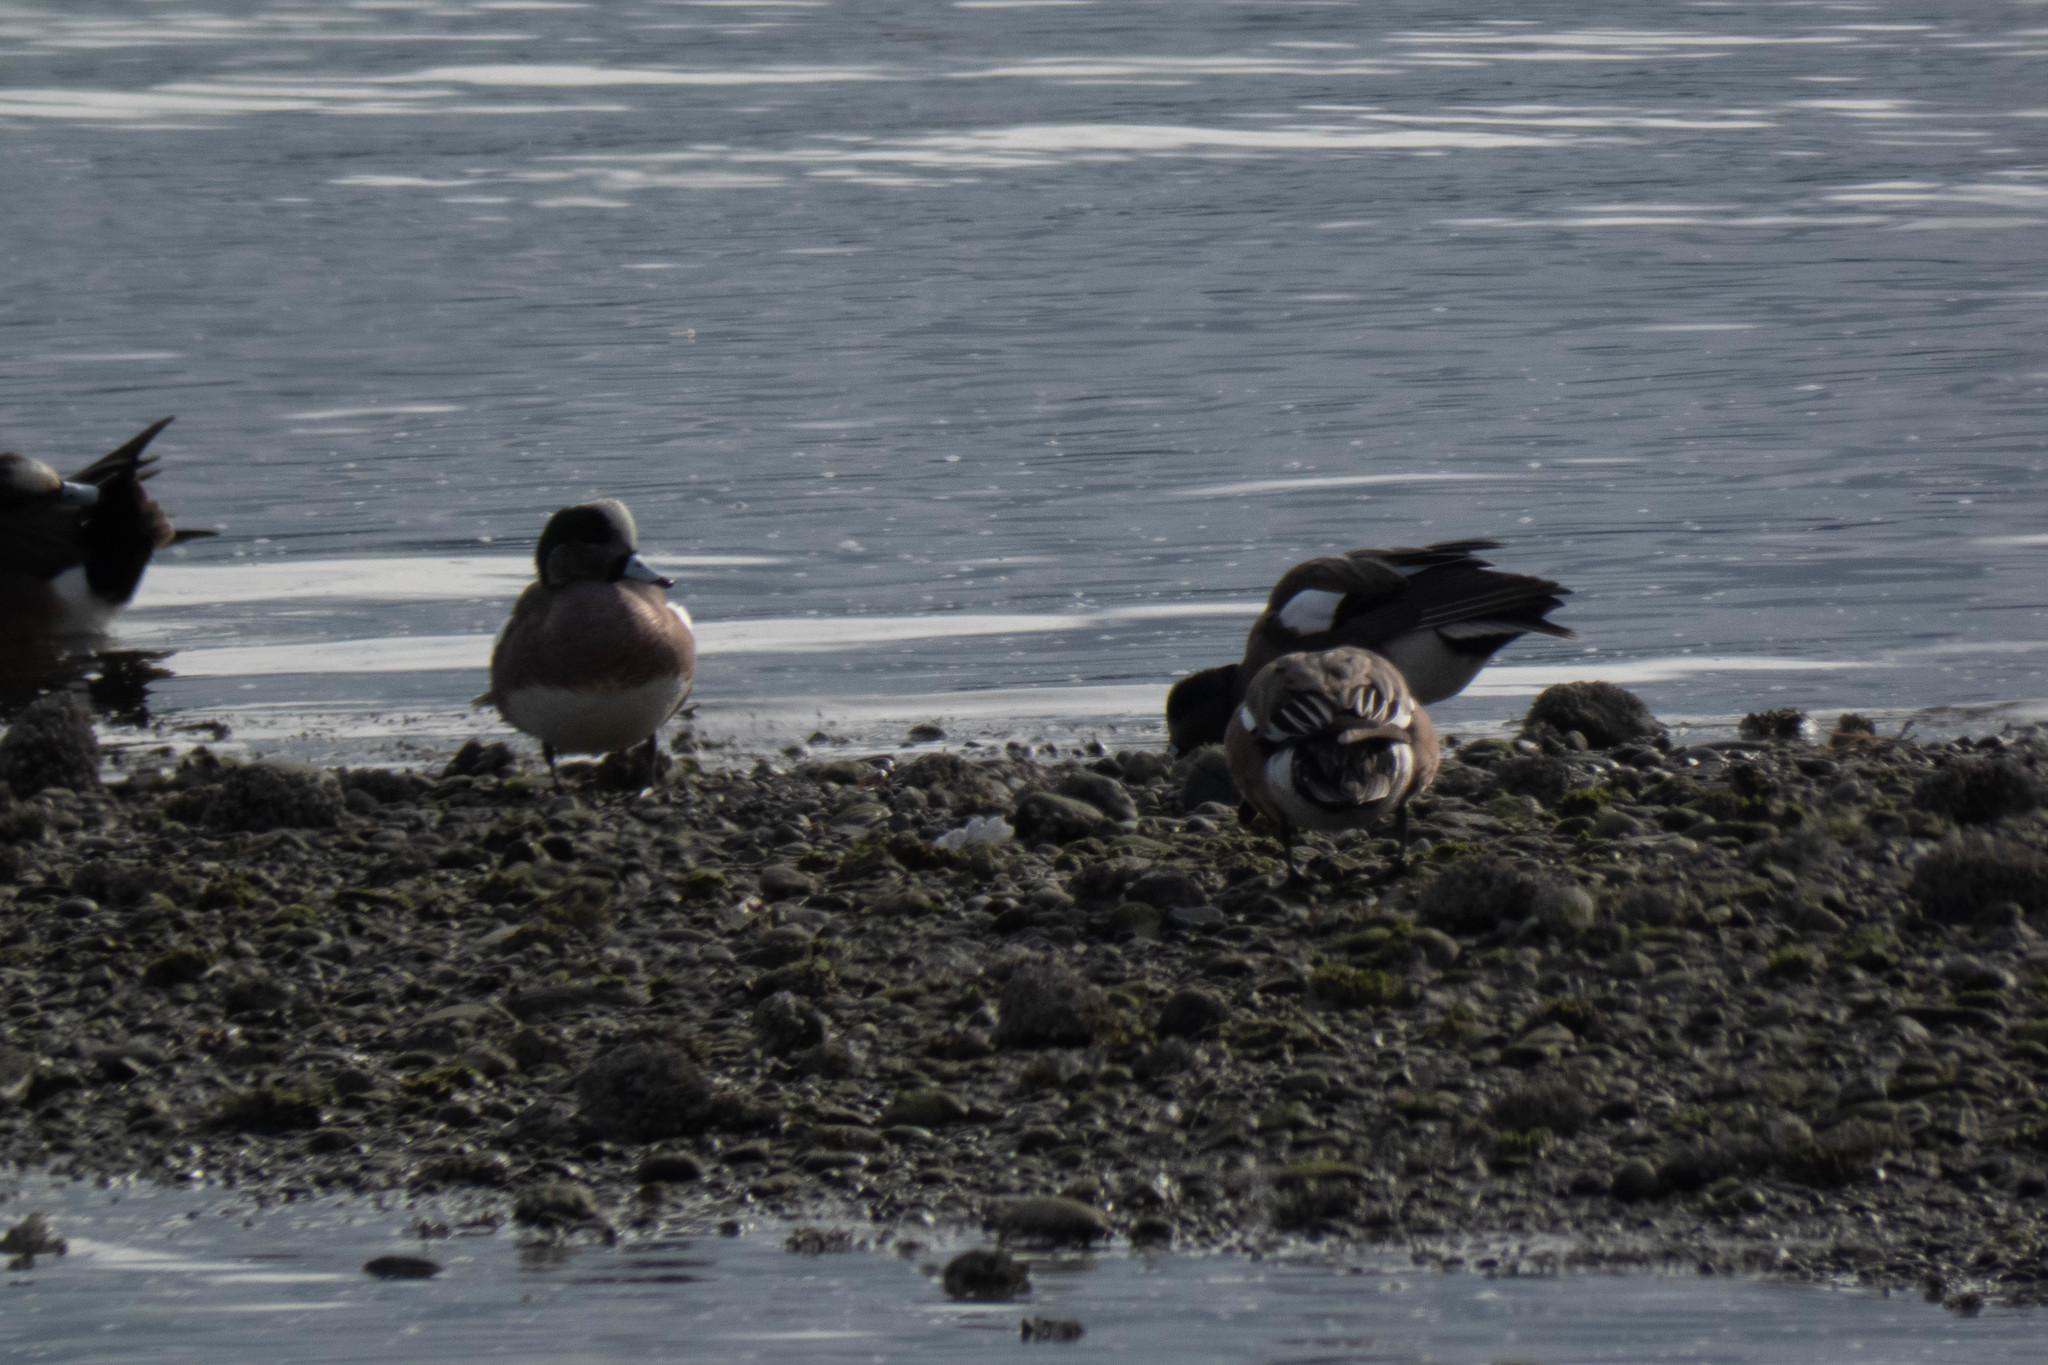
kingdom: Animalia
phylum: Chordata
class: Aves
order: Anseriformes
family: Anatidae
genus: Mareca
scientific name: Mareca americana
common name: American wigeon
